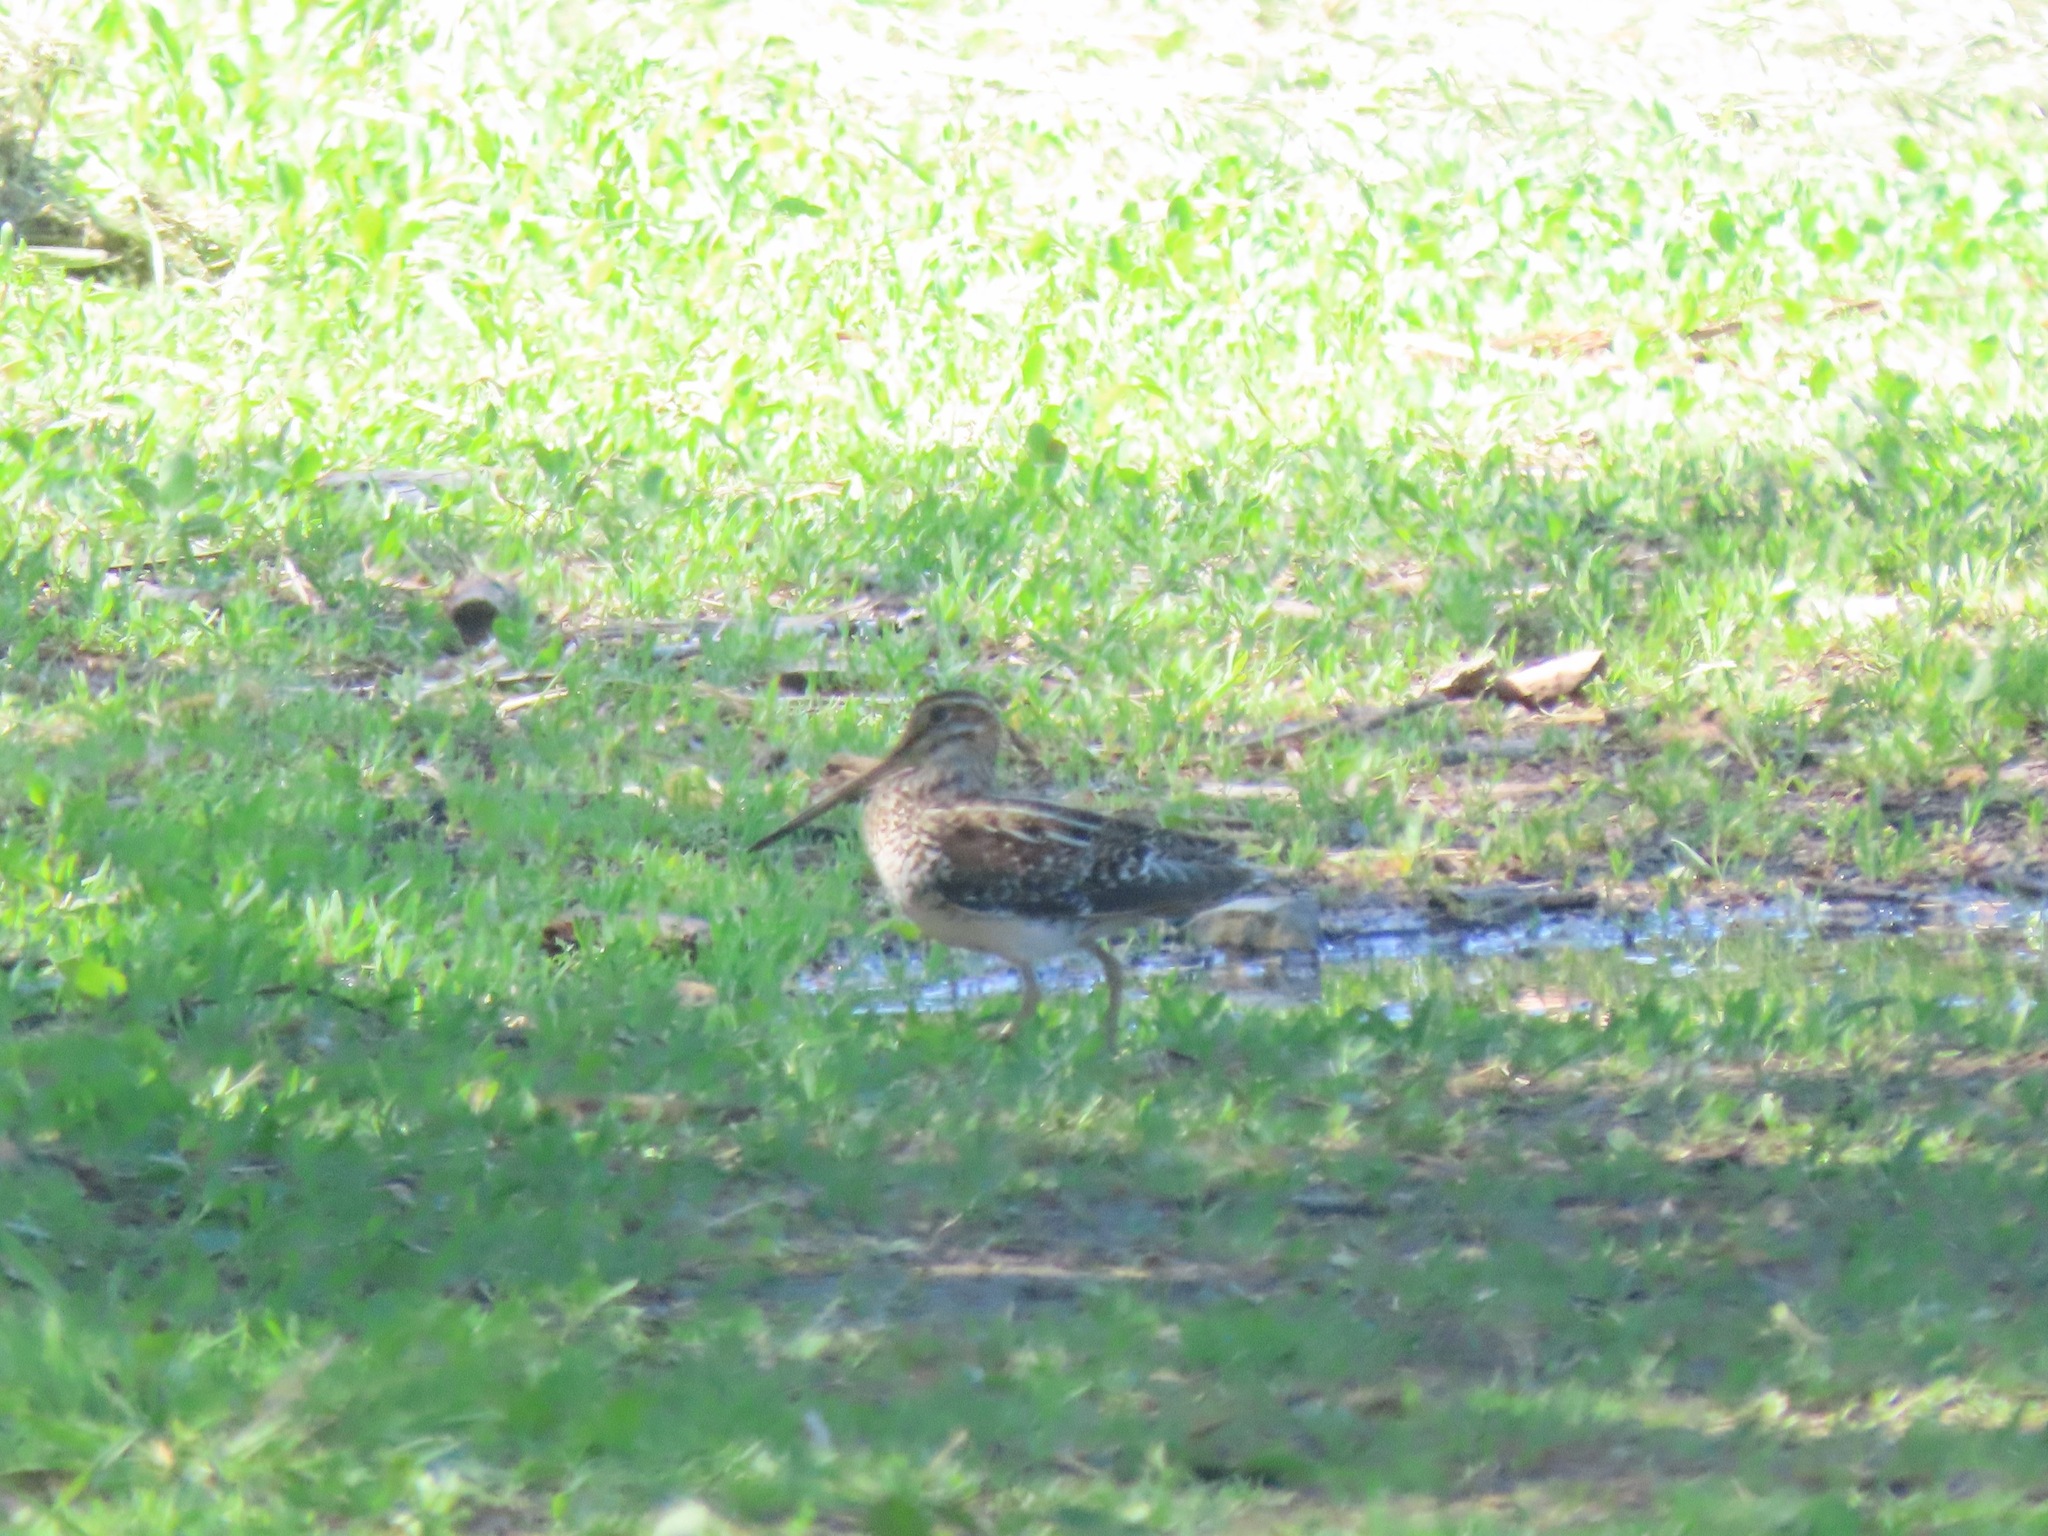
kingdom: Animalia
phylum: Chordata
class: Aves
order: Charadriiformes
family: Scolopacidae
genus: Gallinago
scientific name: Gallinago delicata
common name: Wilson's snipe
